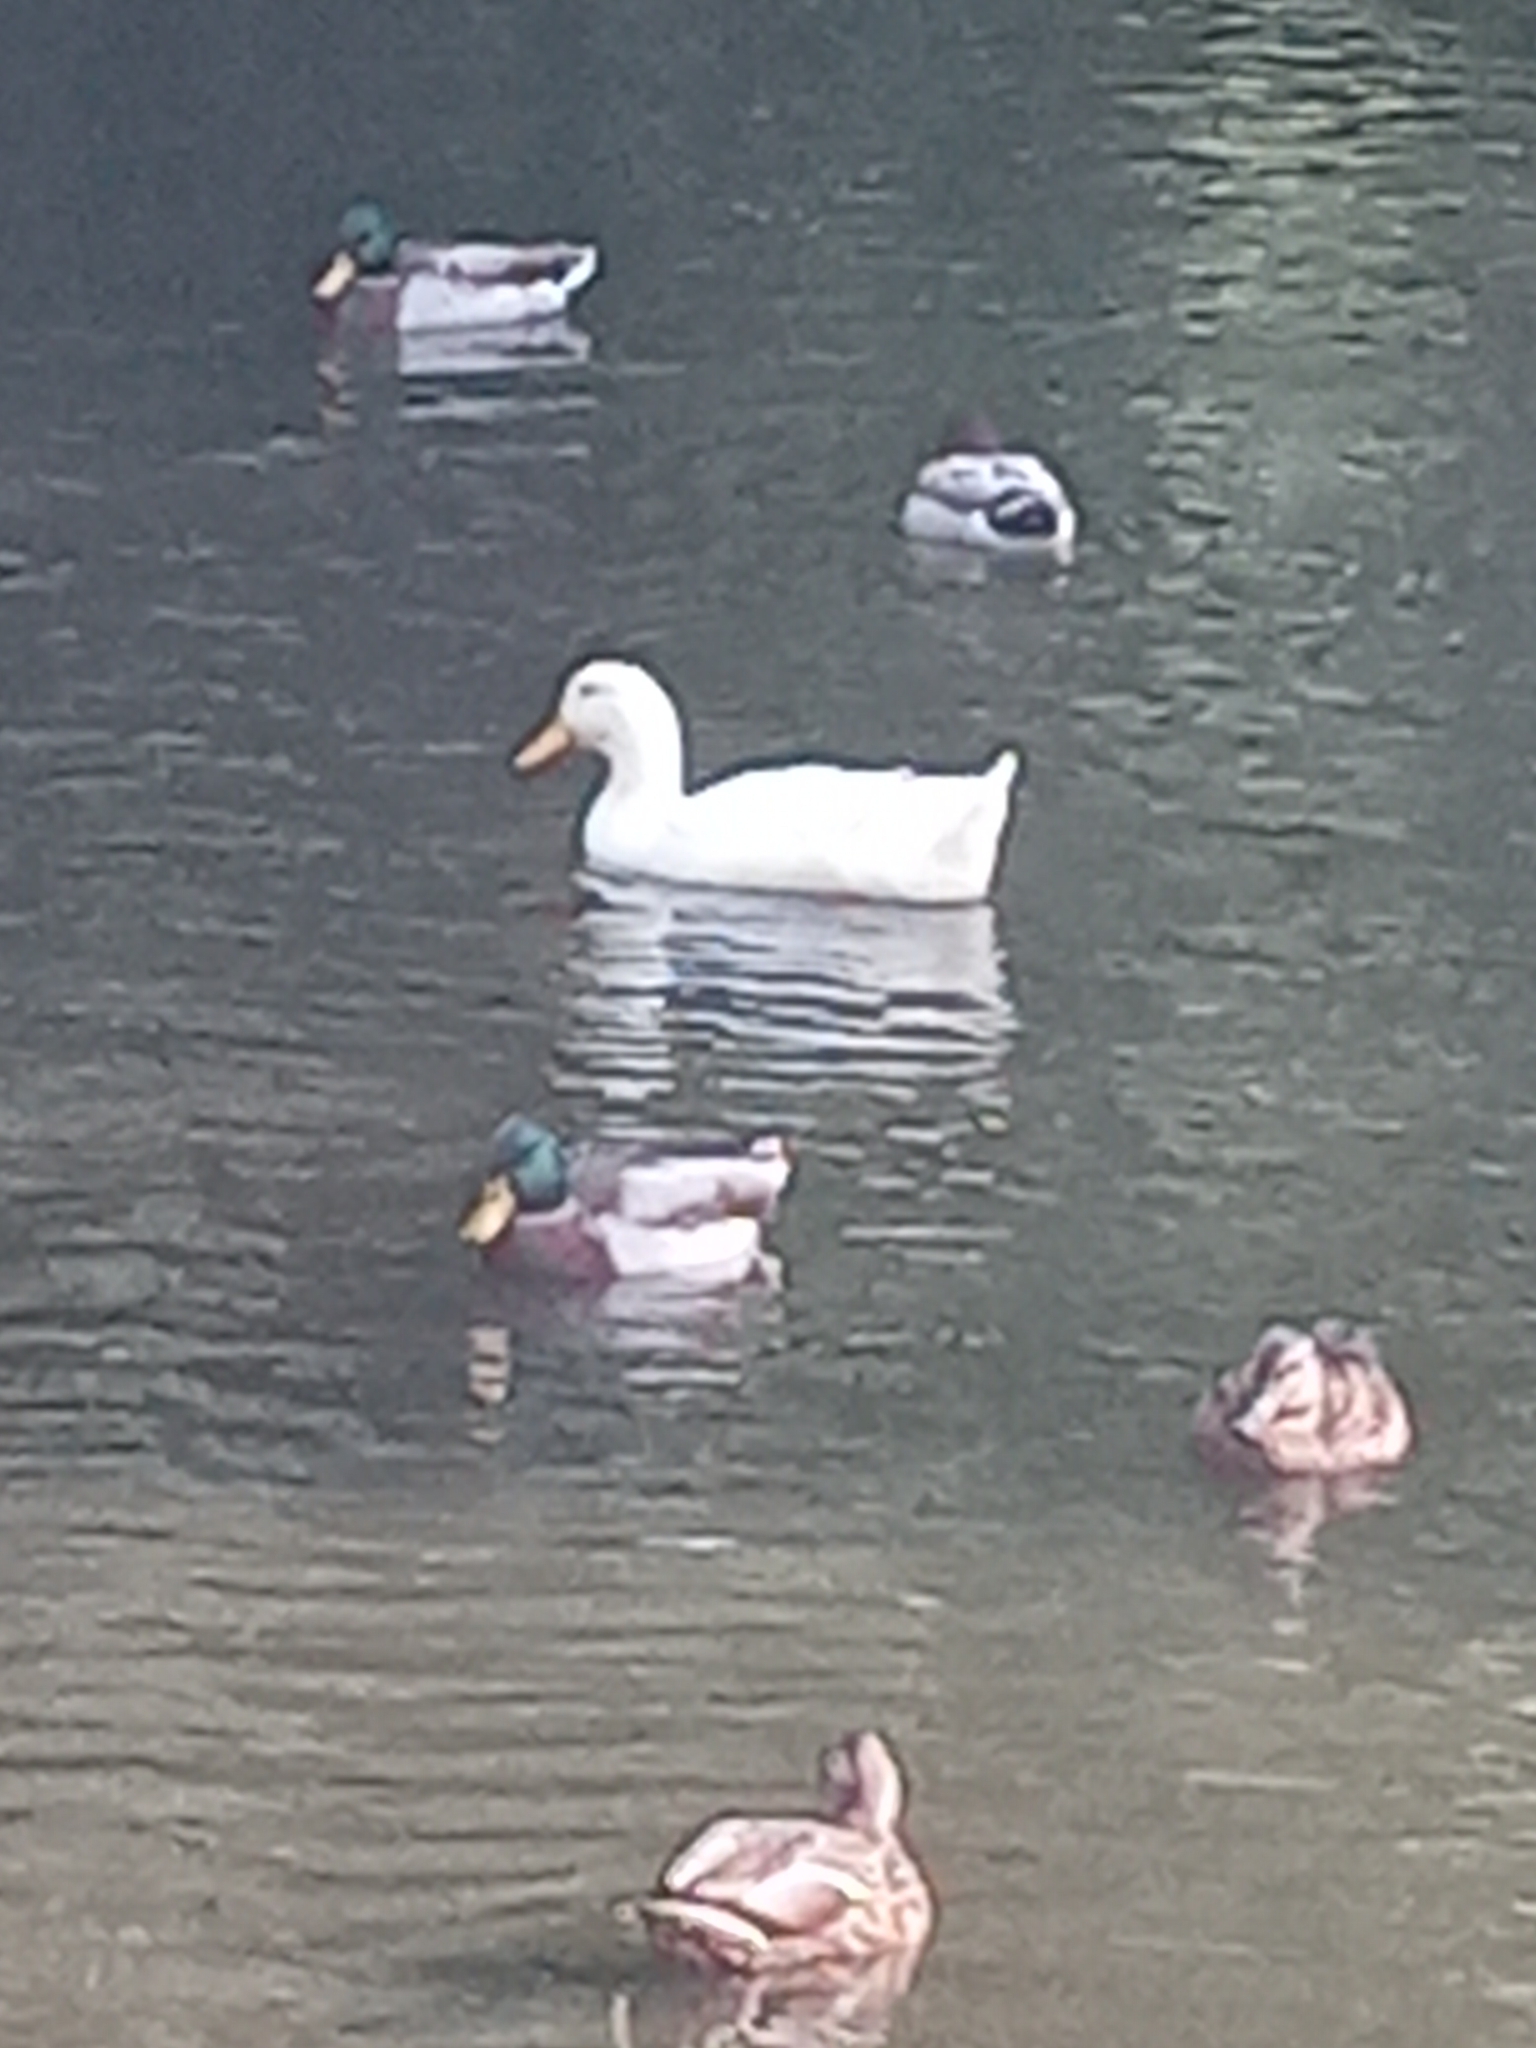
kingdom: Animalia
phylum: Chordata
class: Aves
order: Anseriformes
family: Anatidae
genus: Anas
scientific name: Anas platyrhynchos
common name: Mallard
